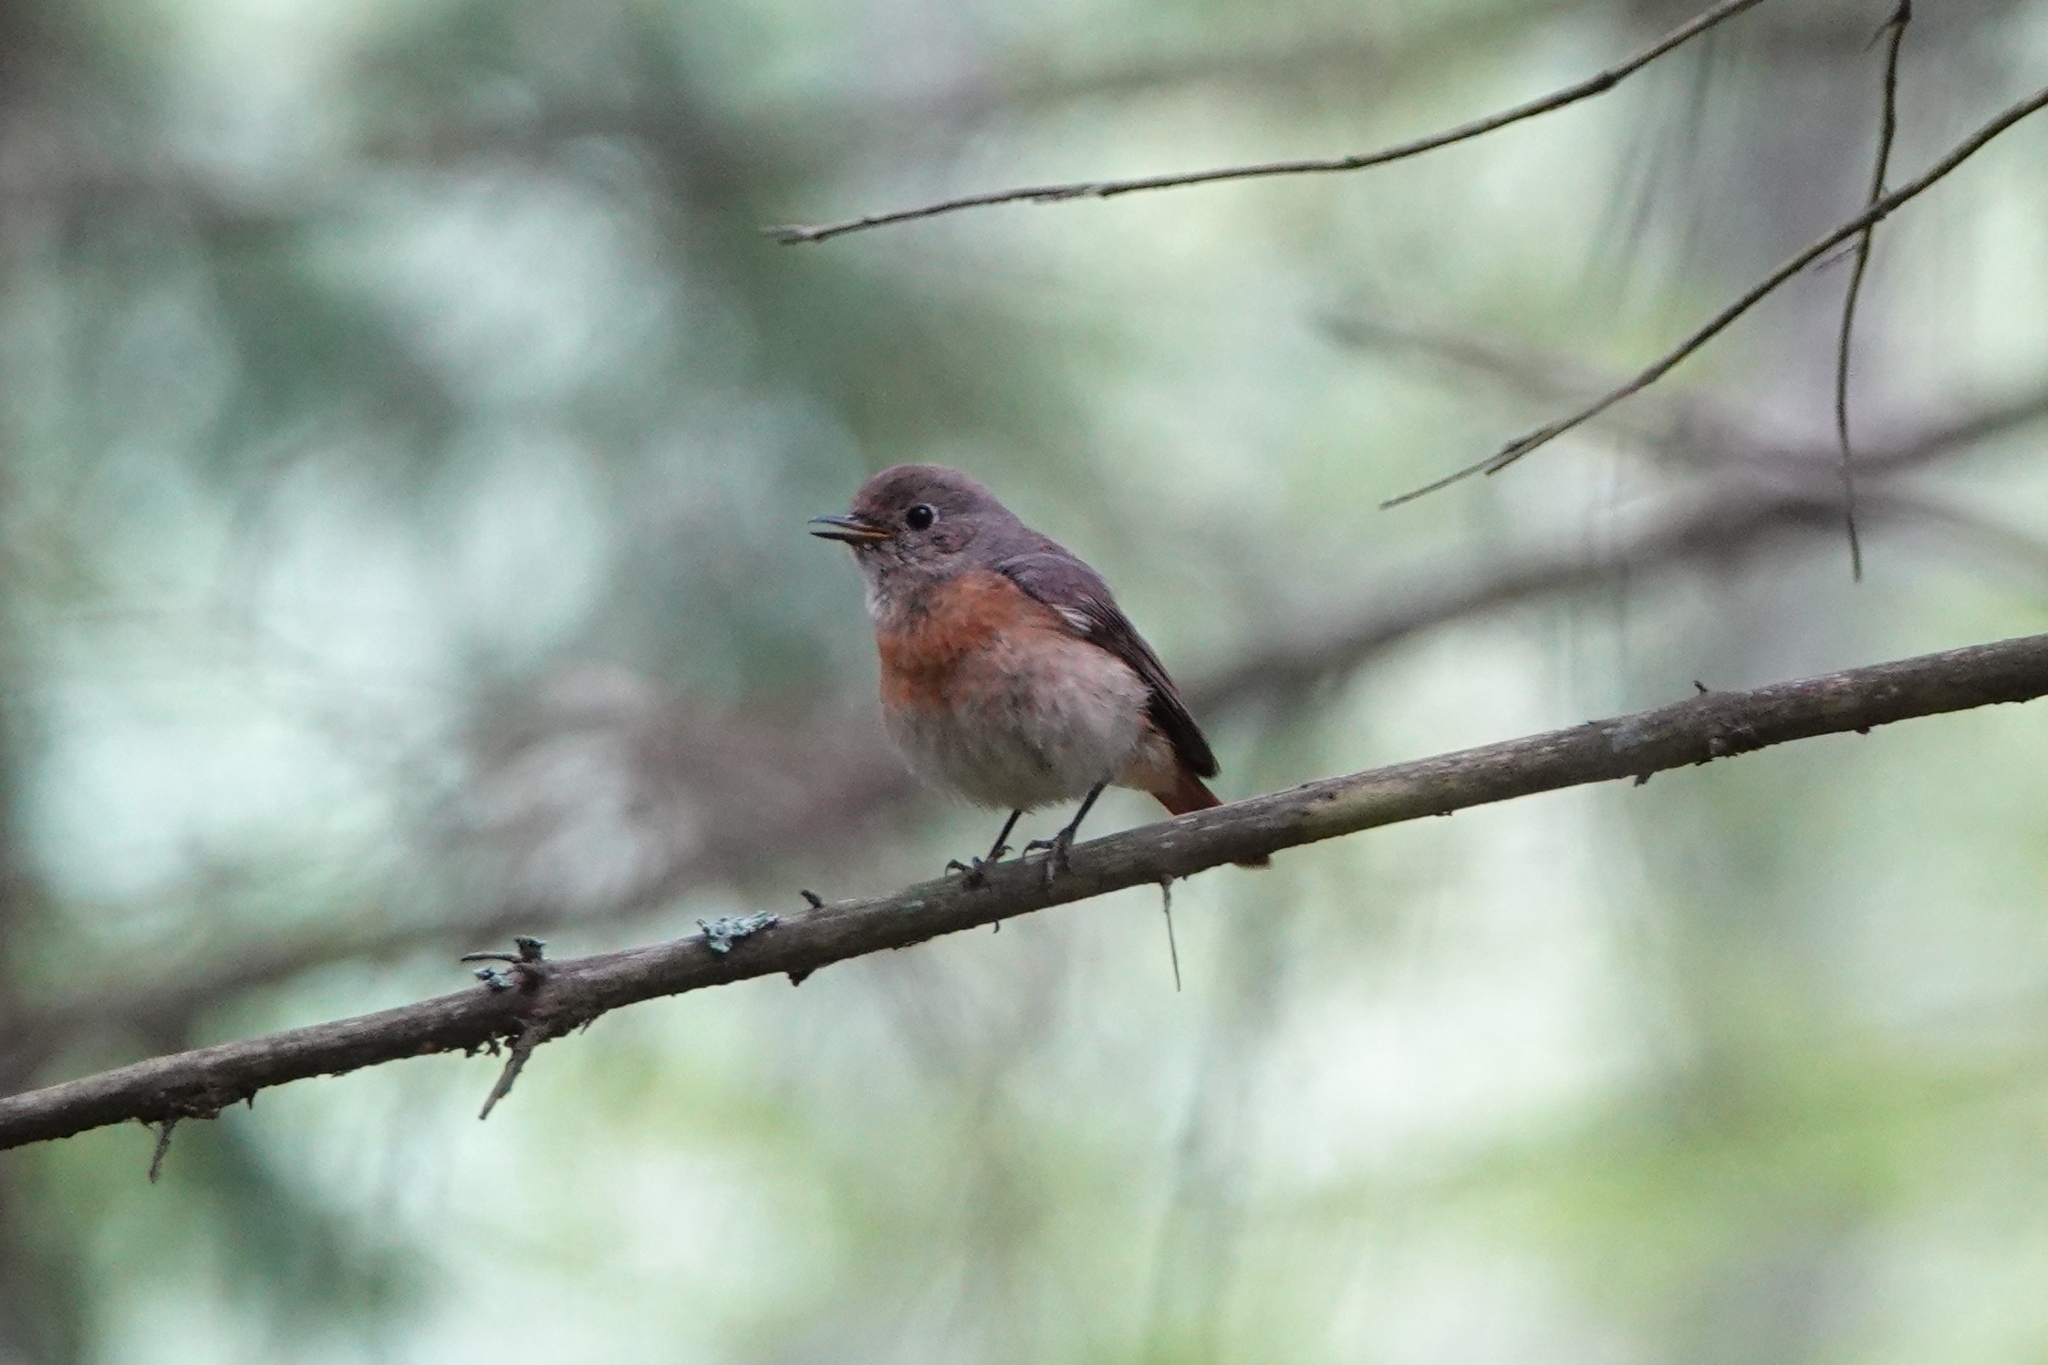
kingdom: Animalia
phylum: Chordata
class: Aves
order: Passeriformes
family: Muscicapidae
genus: Phoenicurus
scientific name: Phoenicurus phoenicurus
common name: Common redstart
